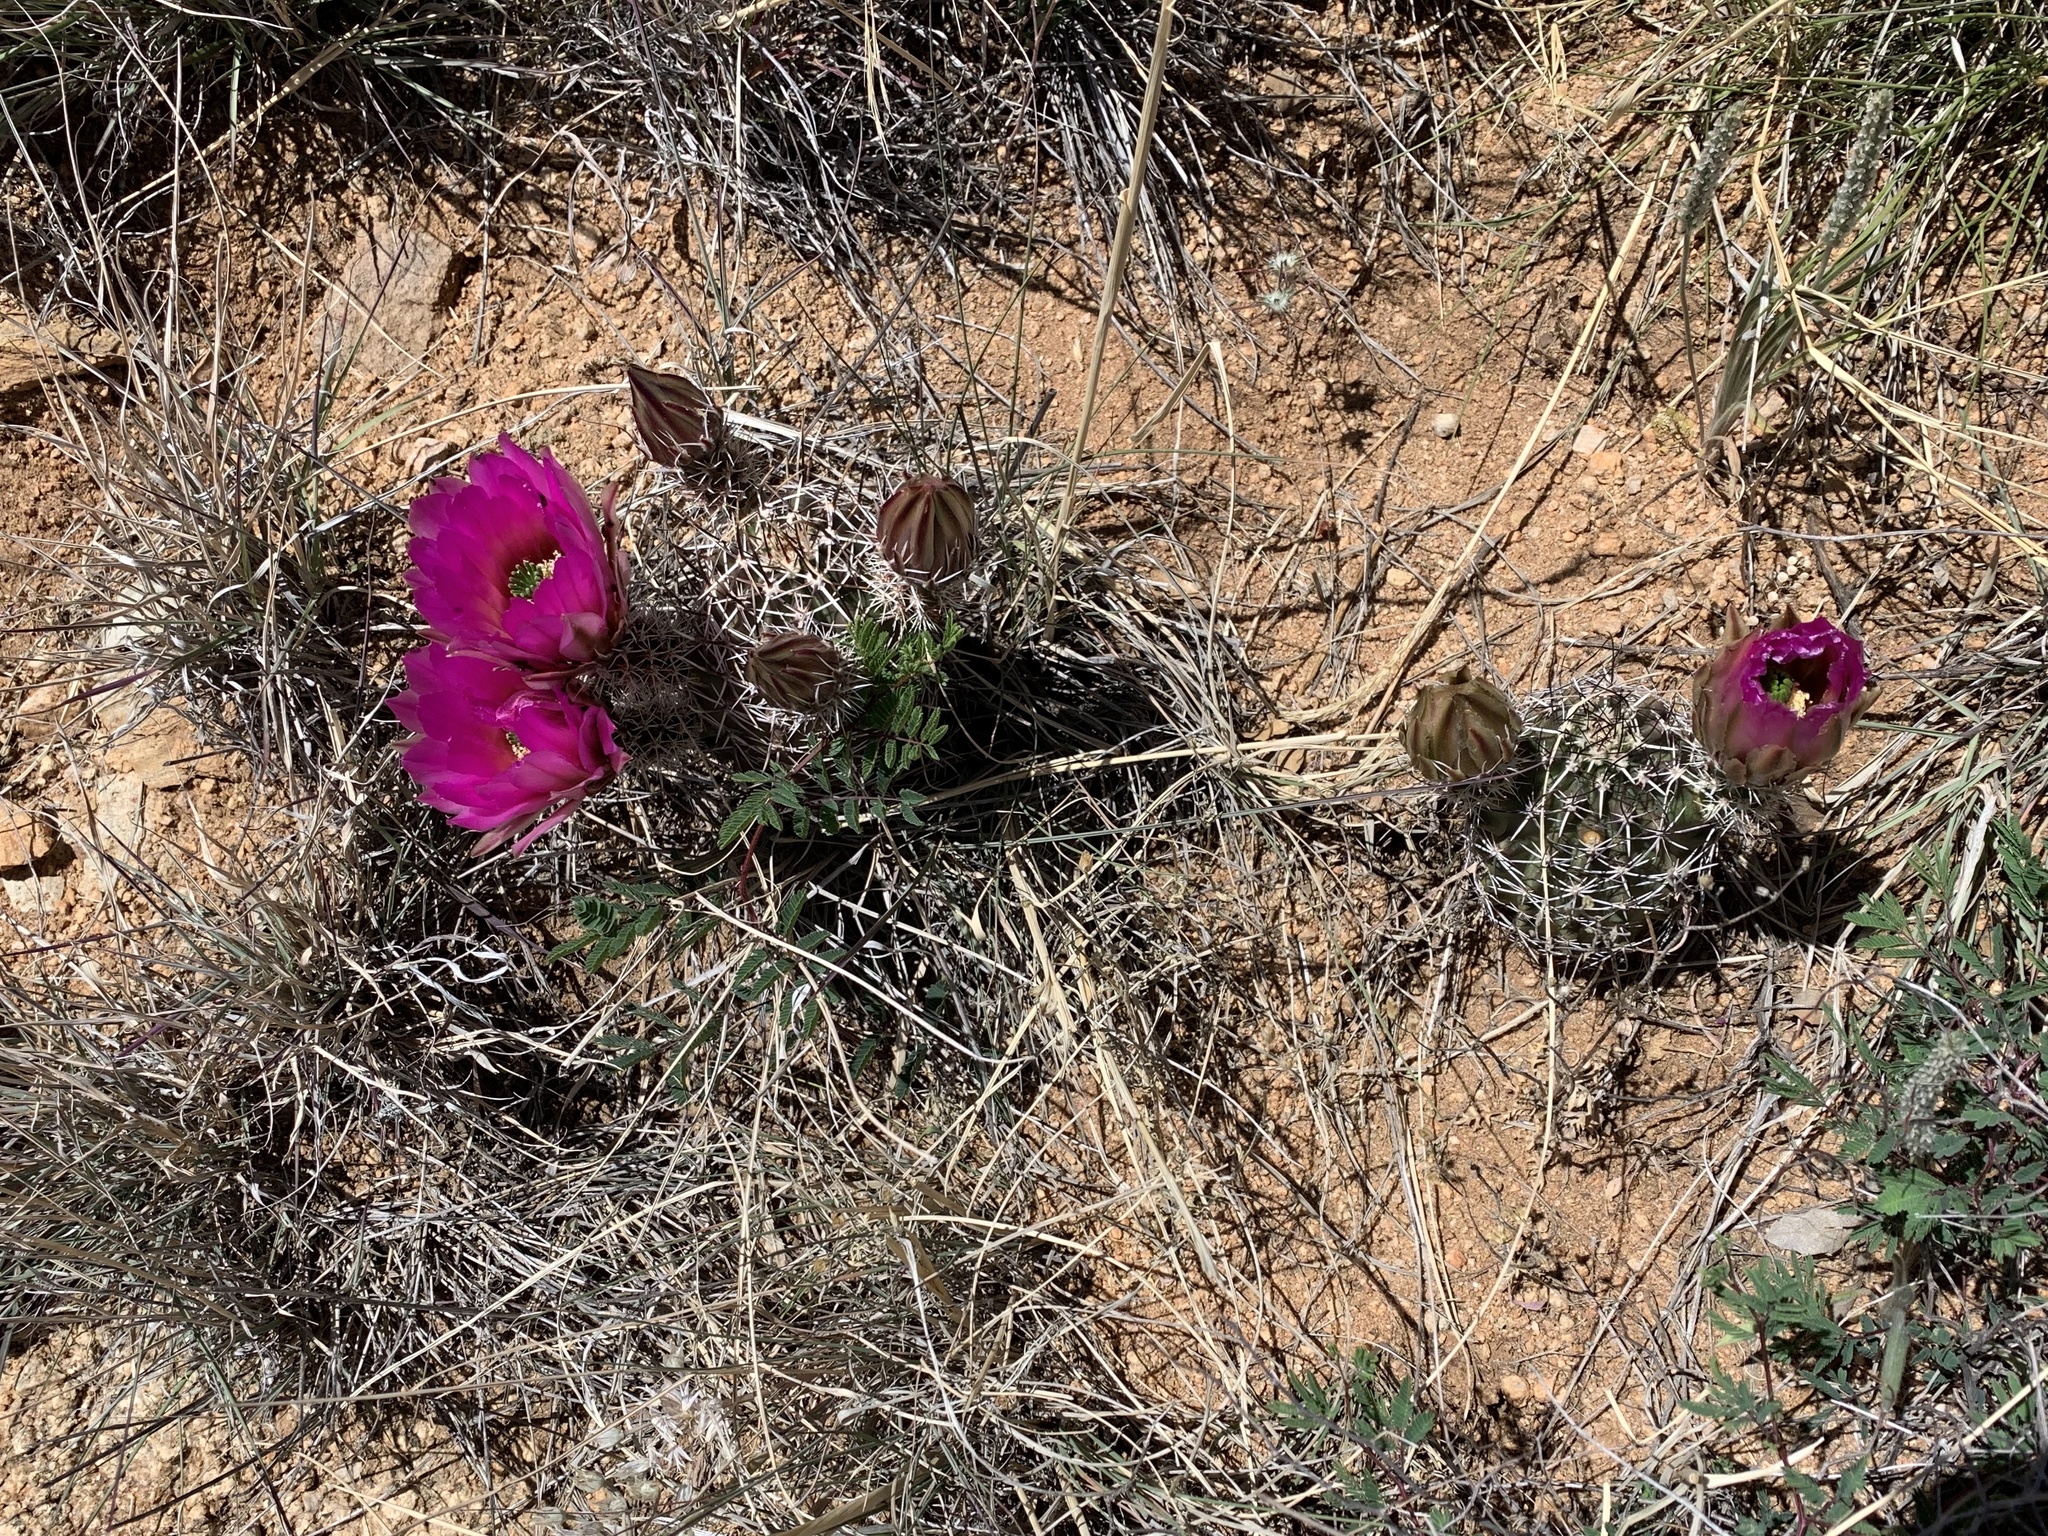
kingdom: Plantae
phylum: Tracheophyta
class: Magnoliopsida
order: Caryophyllales
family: Cactaceae
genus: Echinocereus
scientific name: Echinocereus fendleri
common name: Fendler's hedgehog cactus
